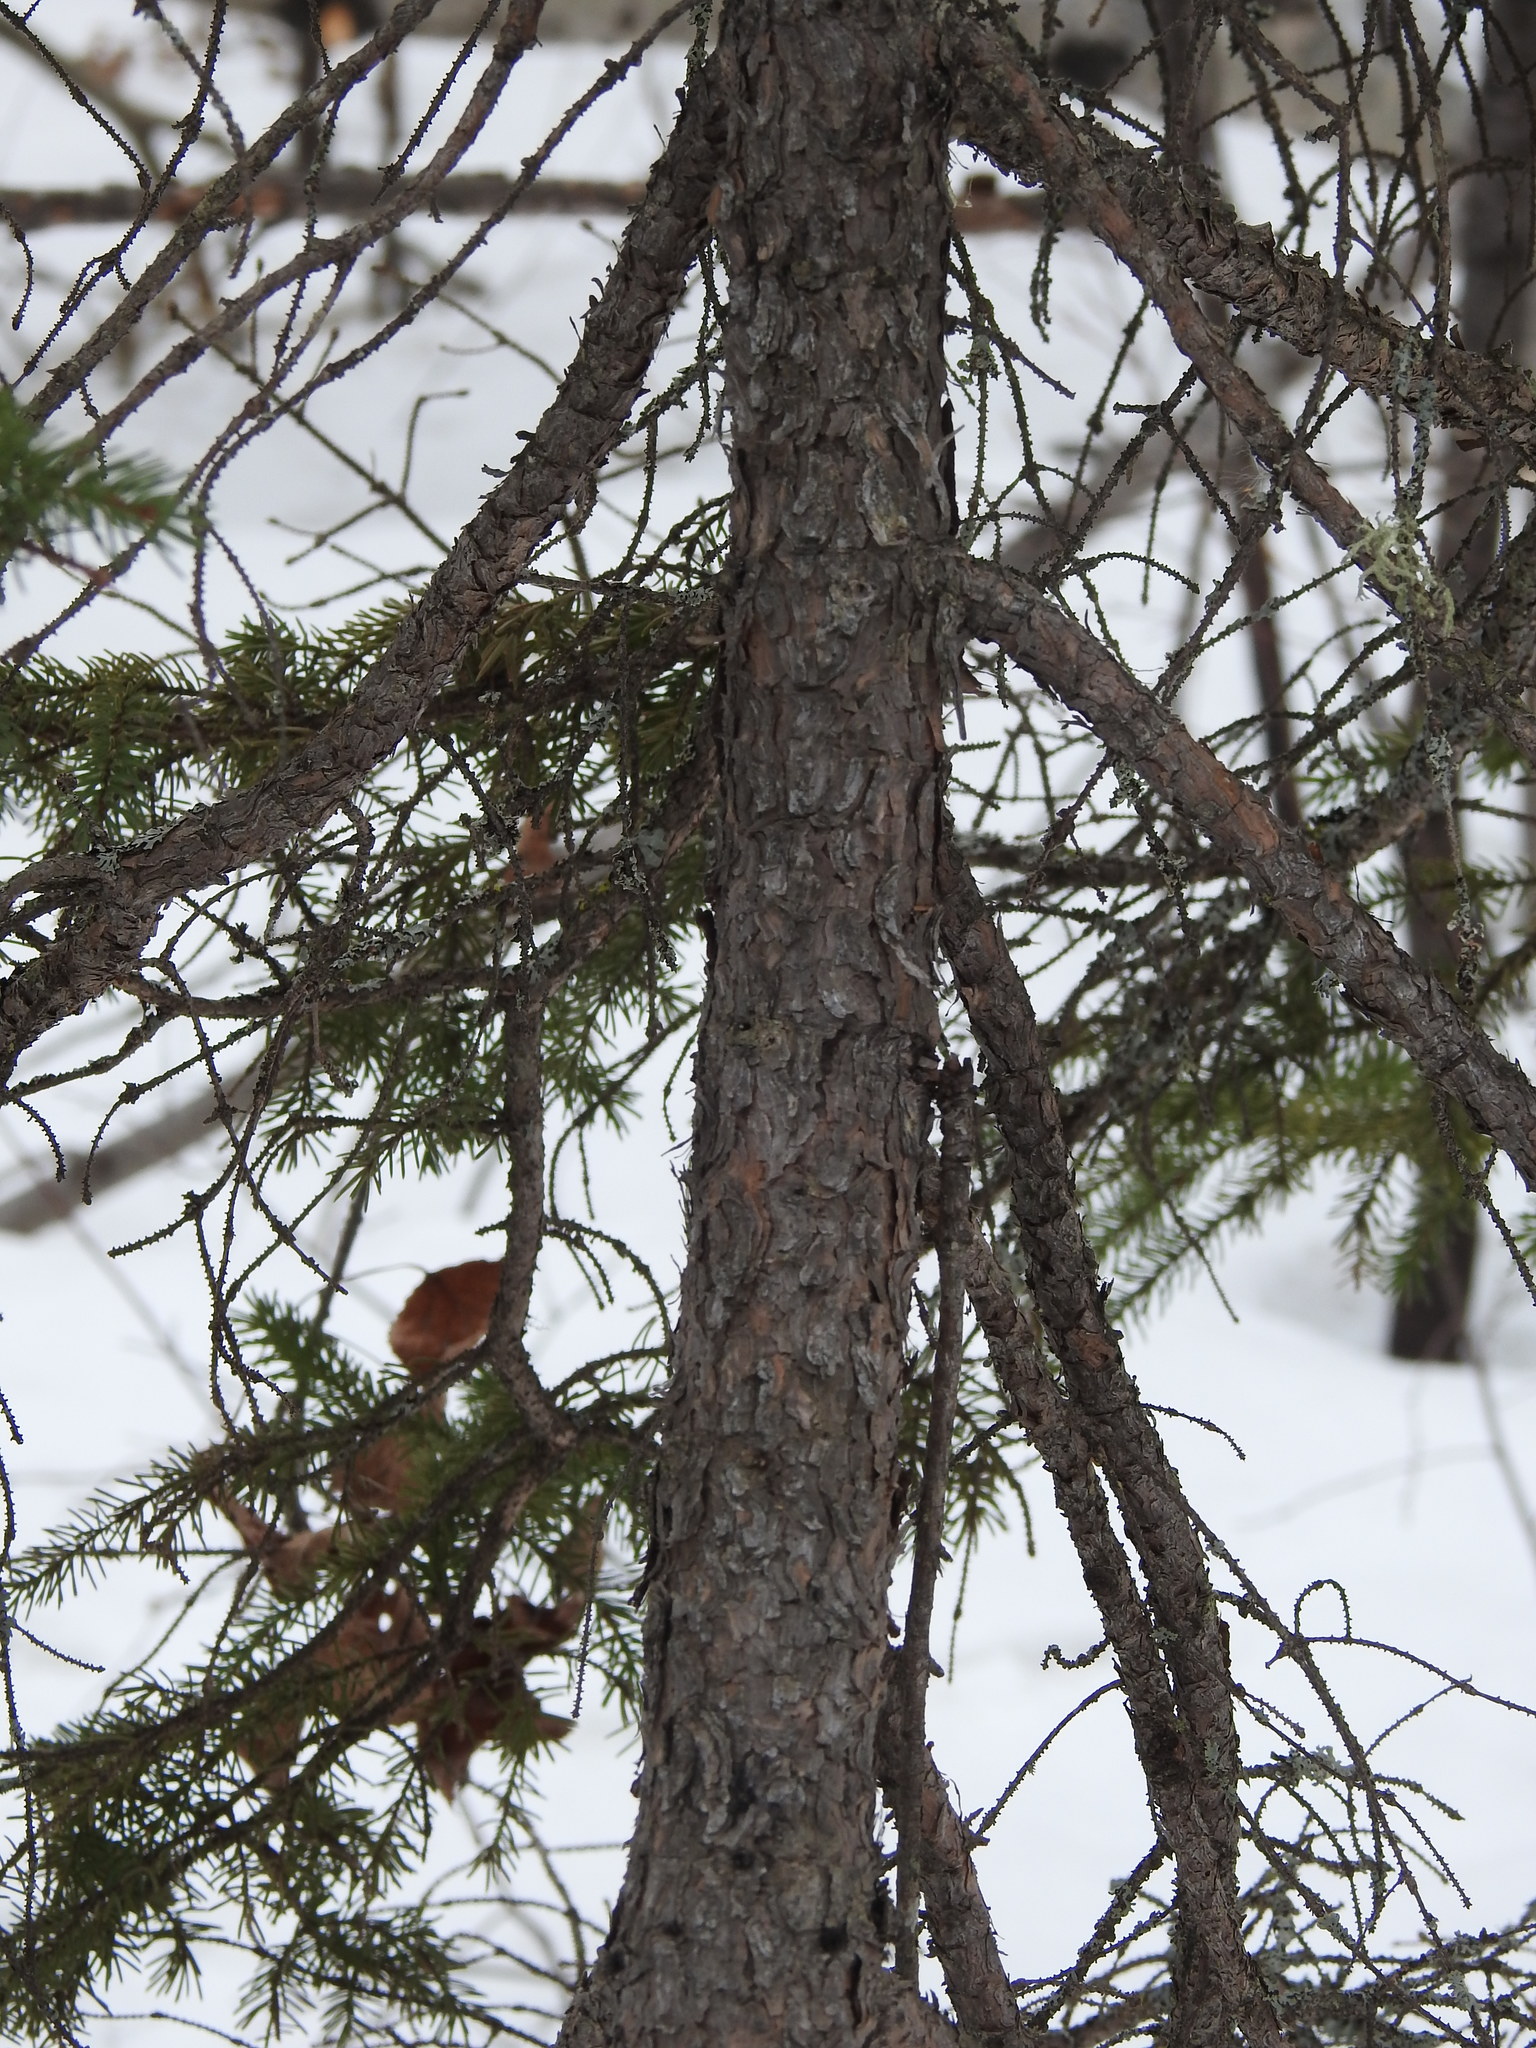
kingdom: Plantae
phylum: Tracheophyta
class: Pinopsida
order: Pinales
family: Pinaceae
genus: Picea
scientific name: Picea mariana
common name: Black spruce
